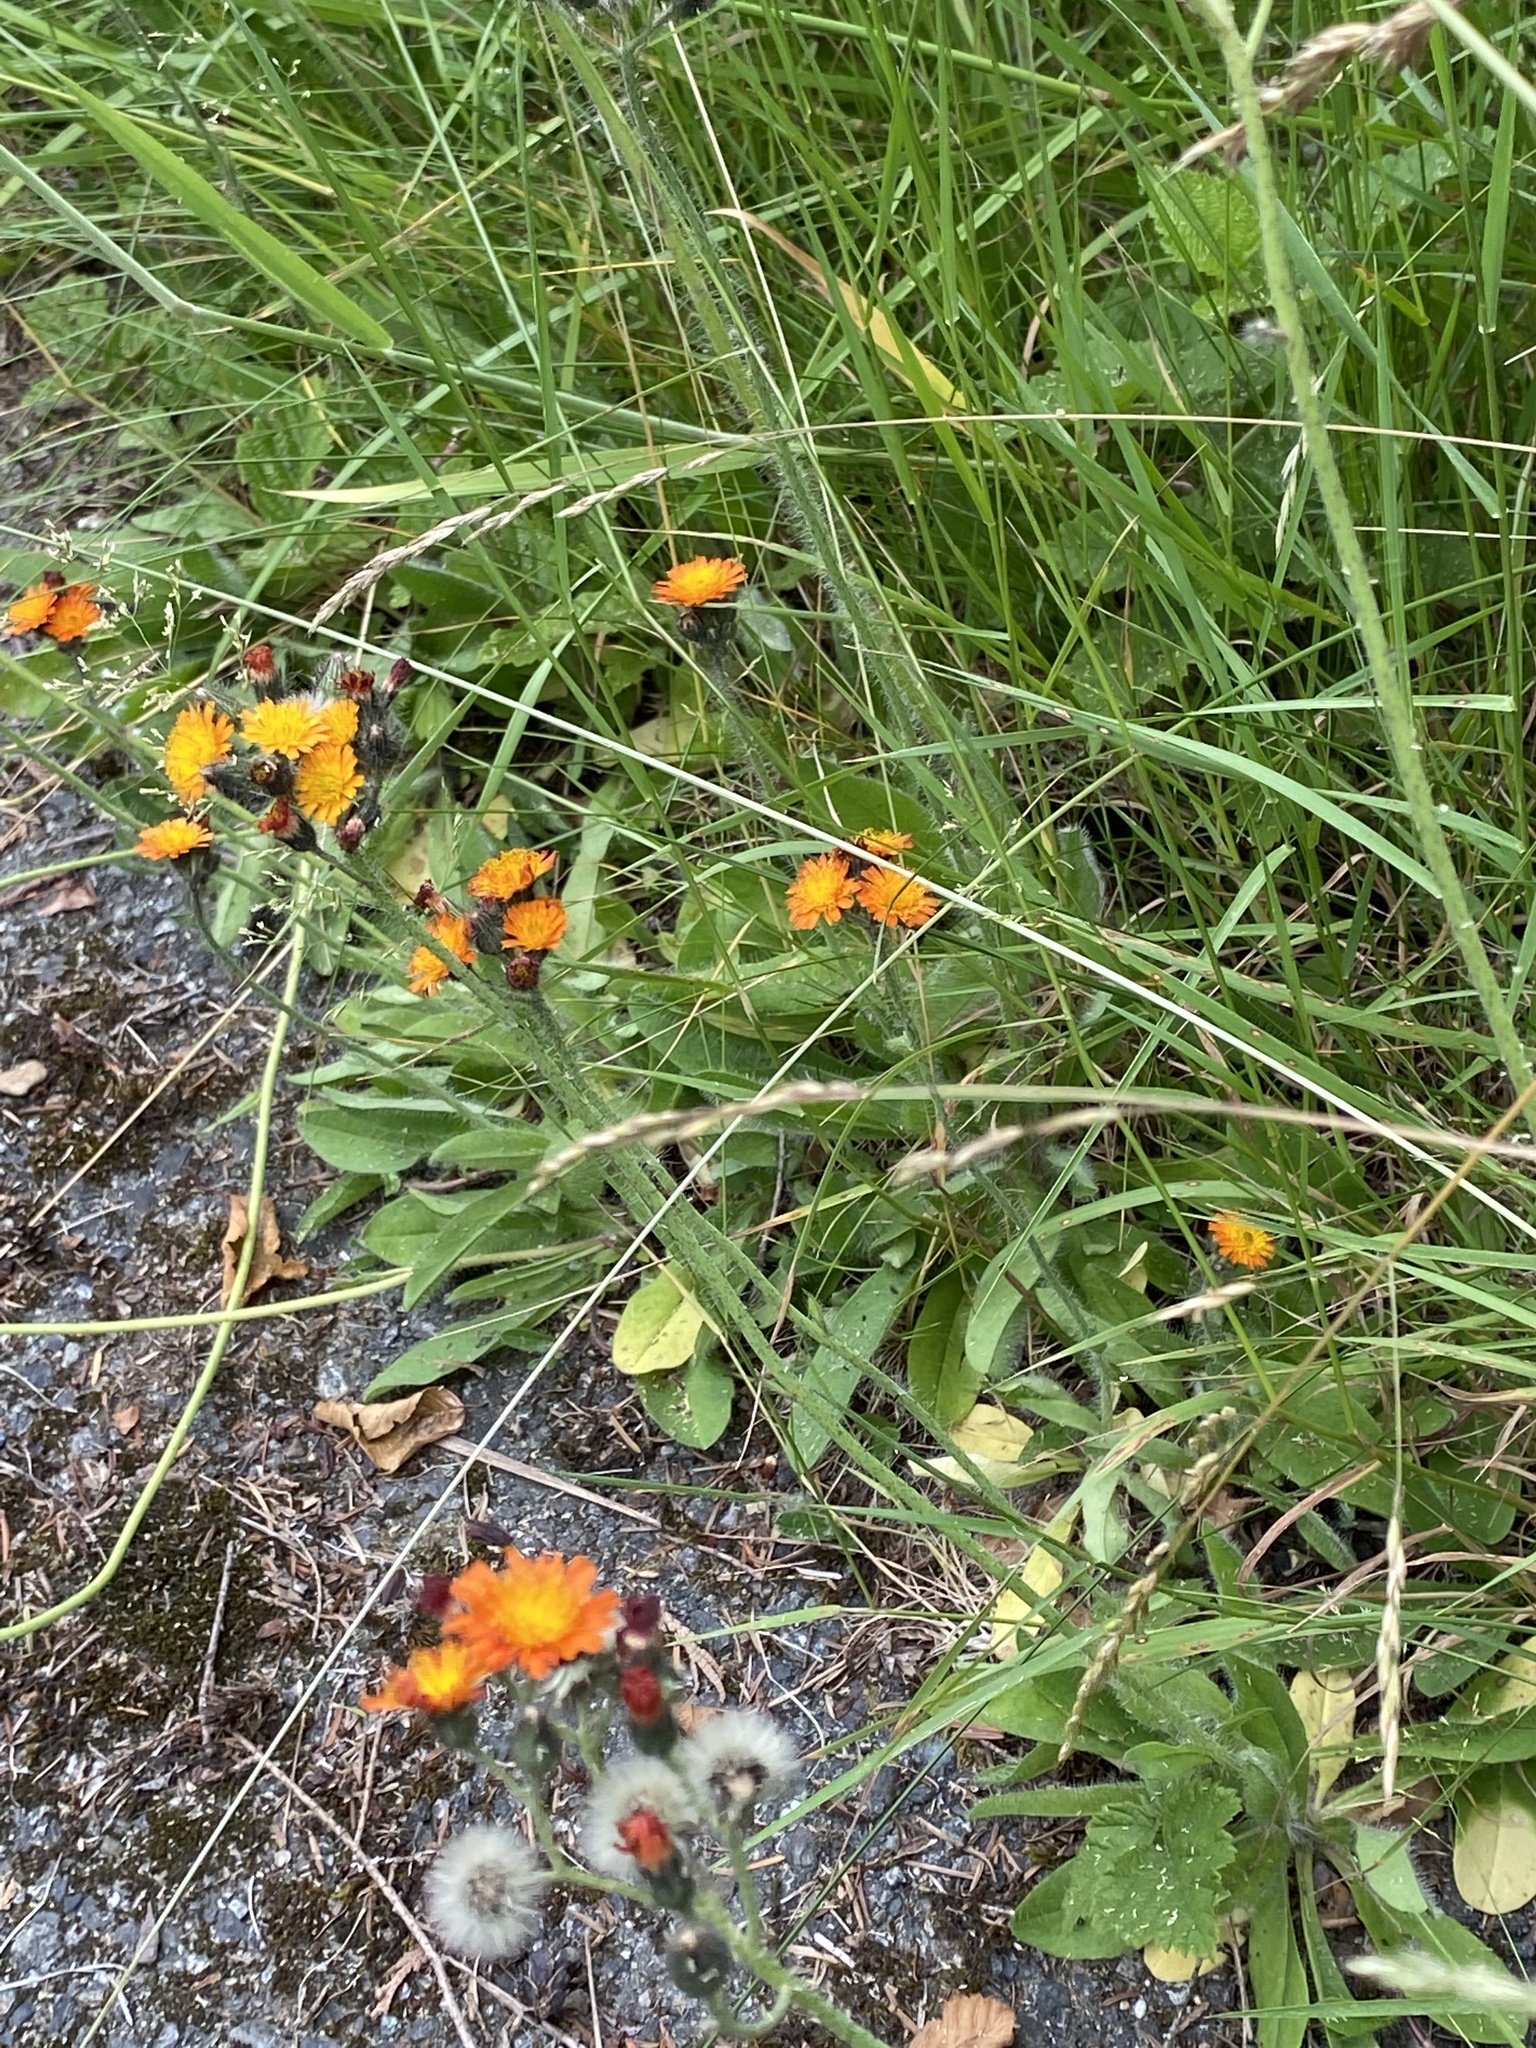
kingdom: Plantae
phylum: Tracheophyta
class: Magnoliopsida
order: Asterales
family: Asteraceae
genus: Pilosella
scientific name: Pilosella aurantiaca
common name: Fox-and-cubs
